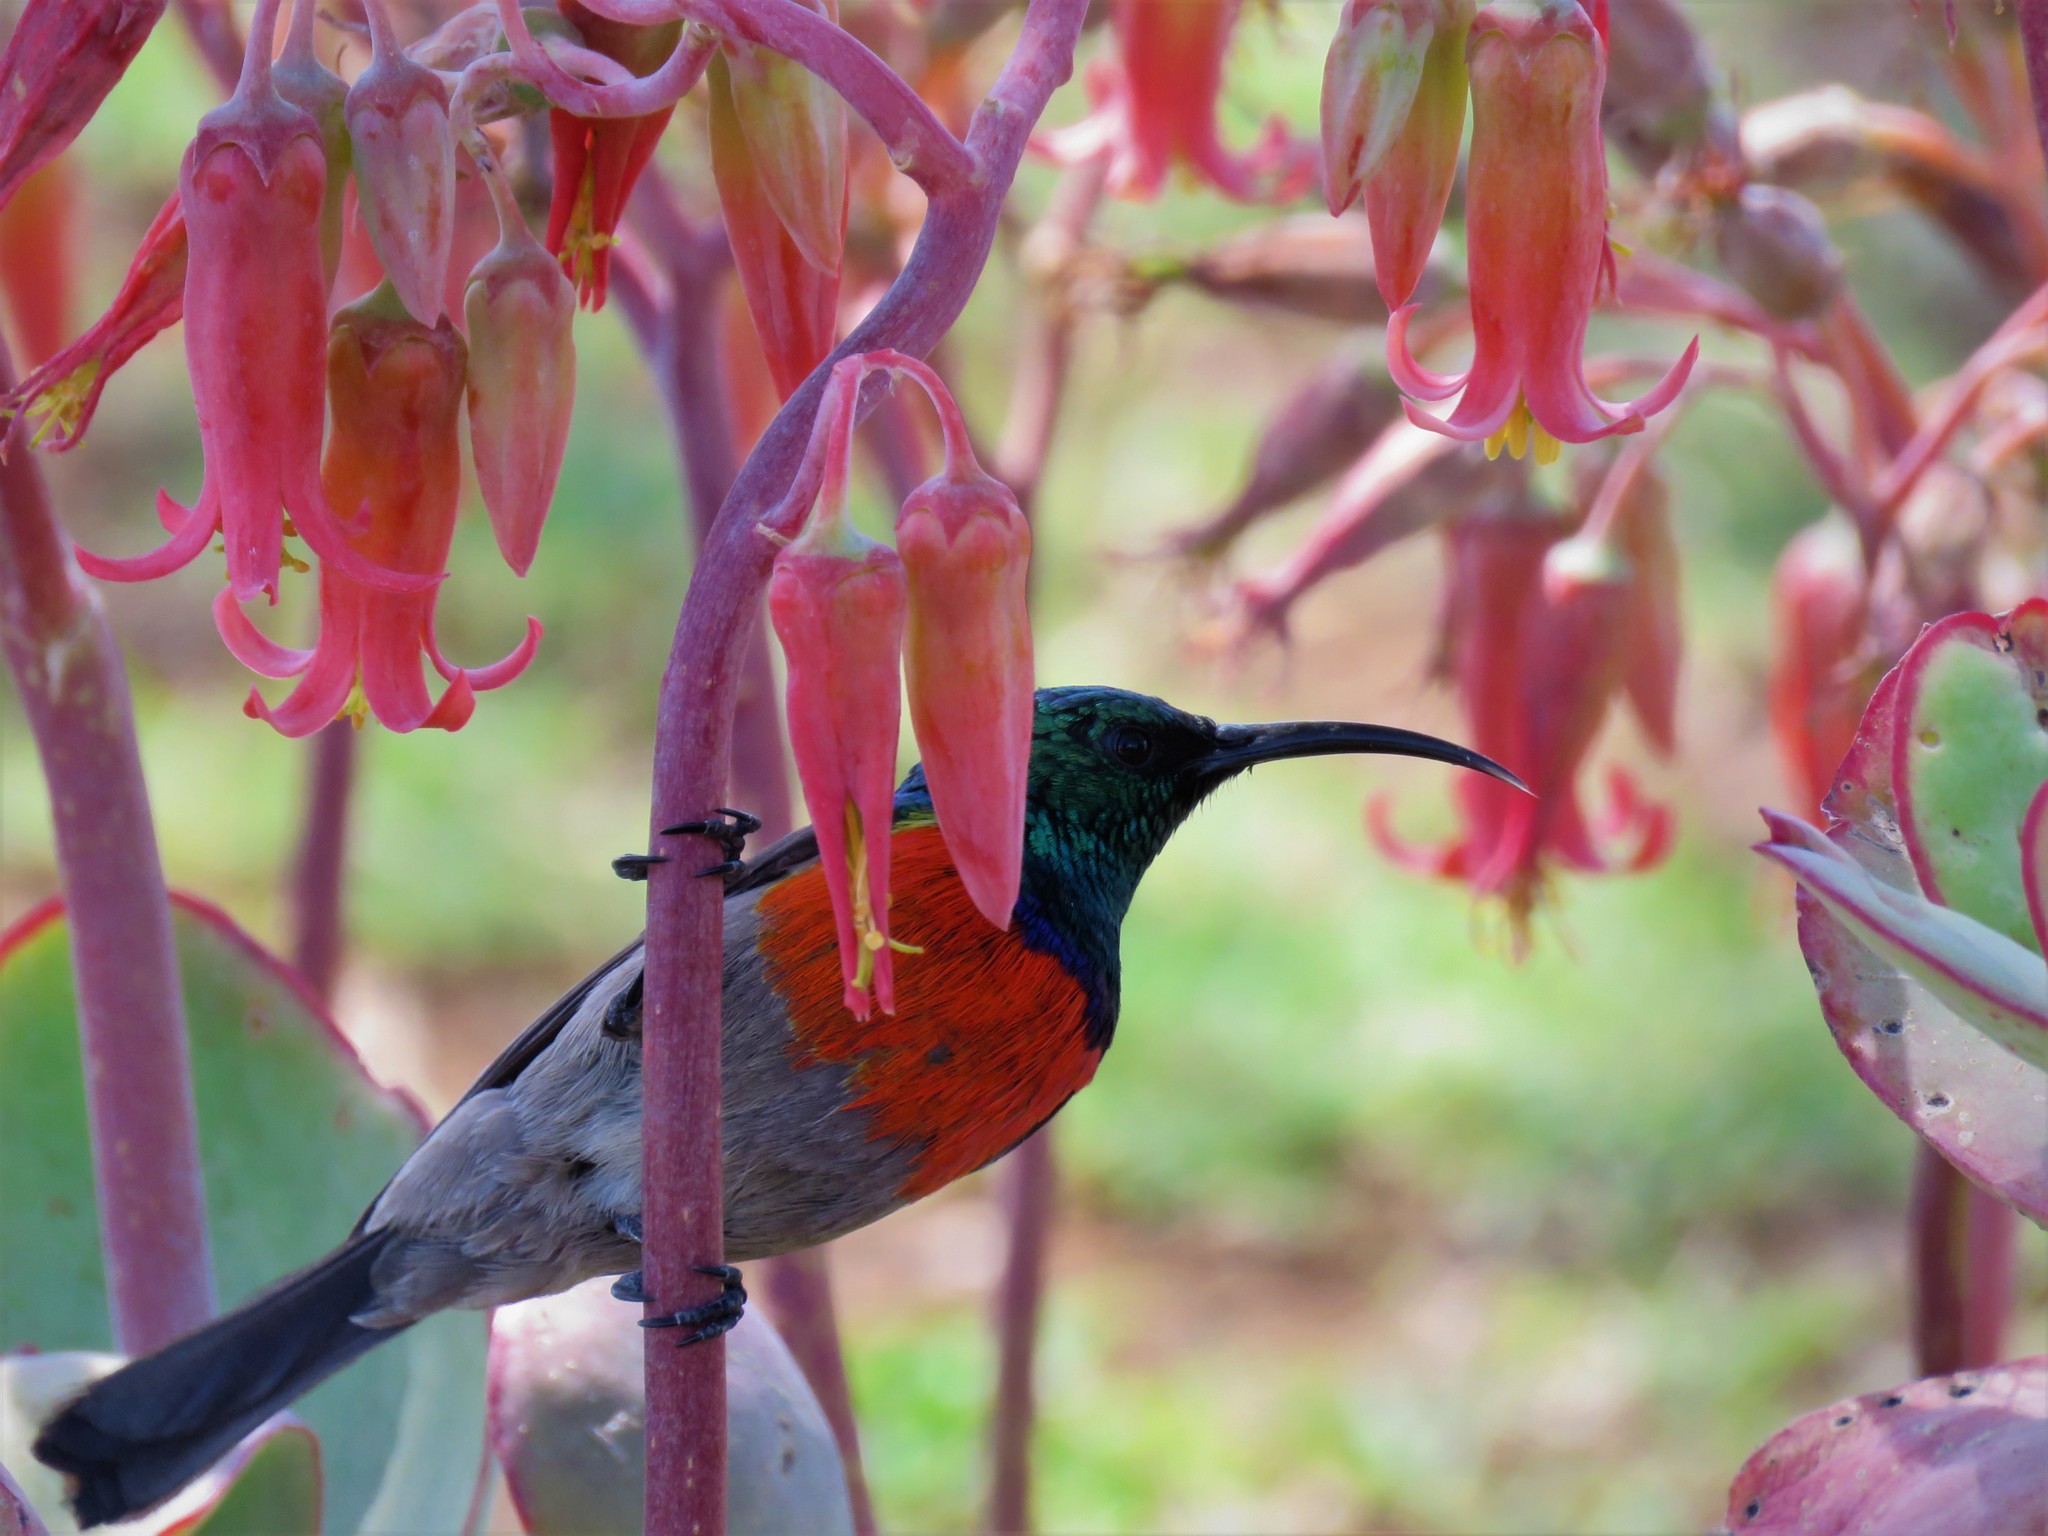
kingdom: Animalia
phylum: Chordata
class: Aves
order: Passeriformes
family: Nectariniidae
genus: Cinnyris
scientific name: Cinnyris afer
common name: Greater double-collared sunbird
